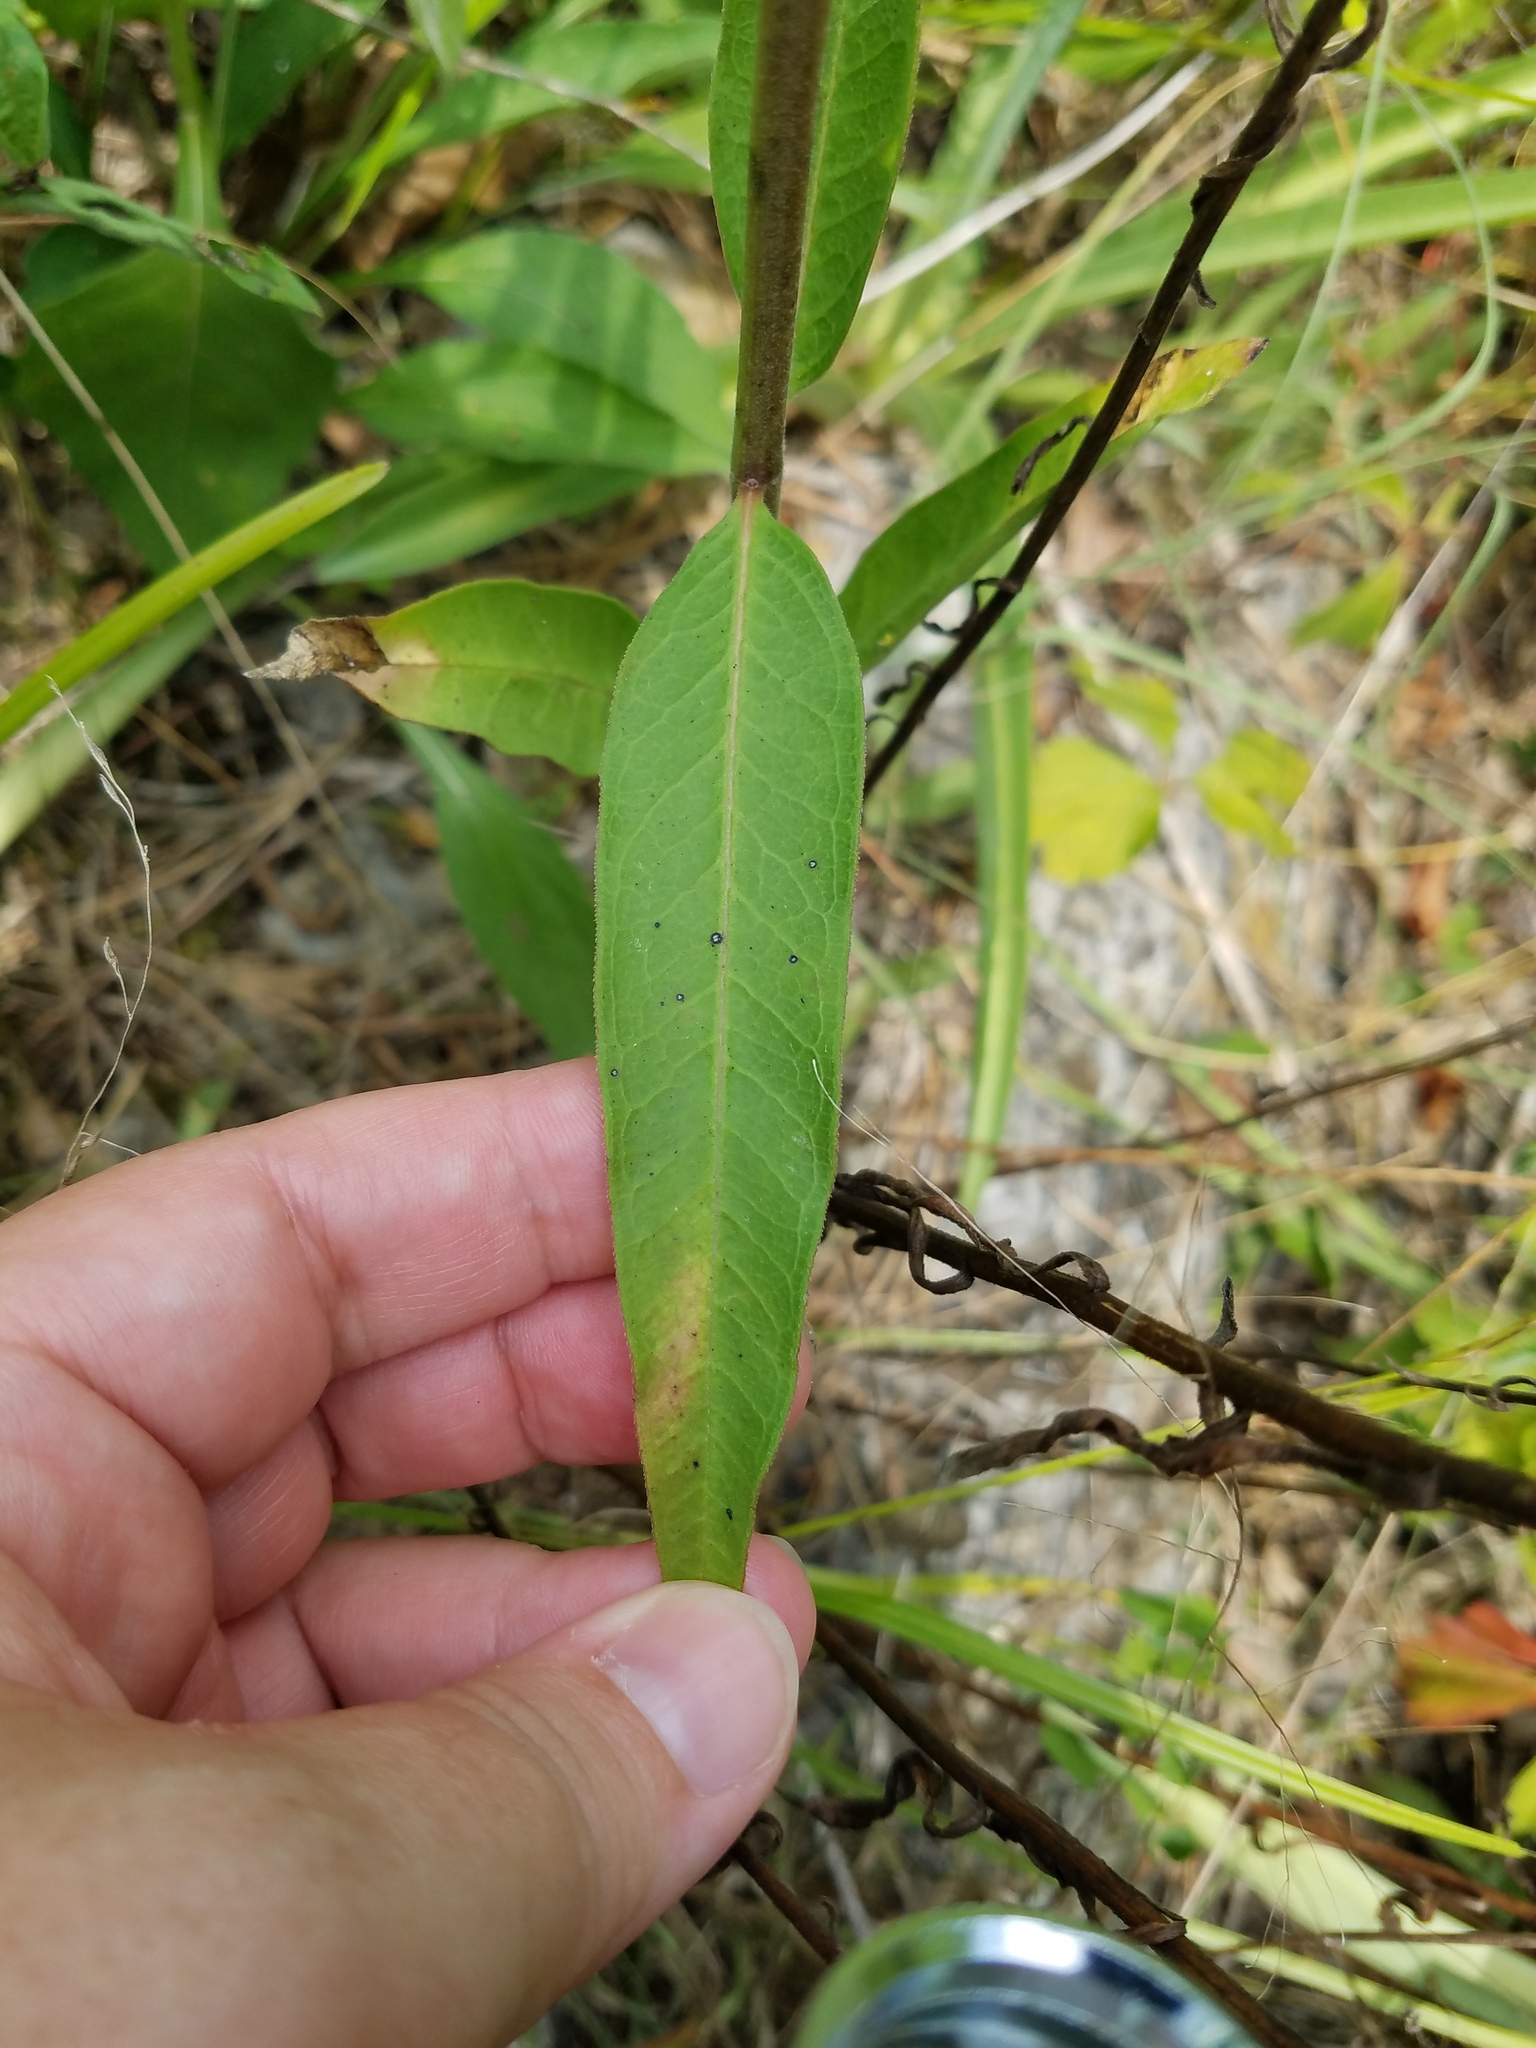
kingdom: Plantae
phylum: Tracheophyta
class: Magnoliopsida
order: Gentianales
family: Apocynaceae
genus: Asclepias
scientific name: Asclepias viridiflora
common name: Green comet milkweed
